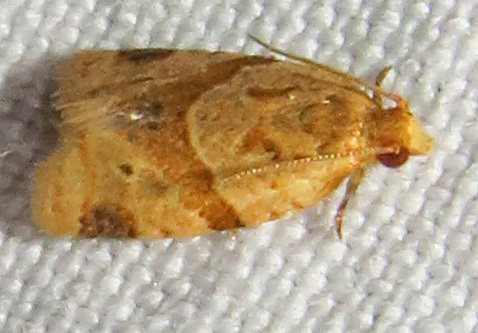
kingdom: Animalia
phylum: Arthropoda
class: Insecta
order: Lepidoptera
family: Tortricidae
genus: Clepsis
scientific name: Clepsis peritana
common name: Garden tortrix
